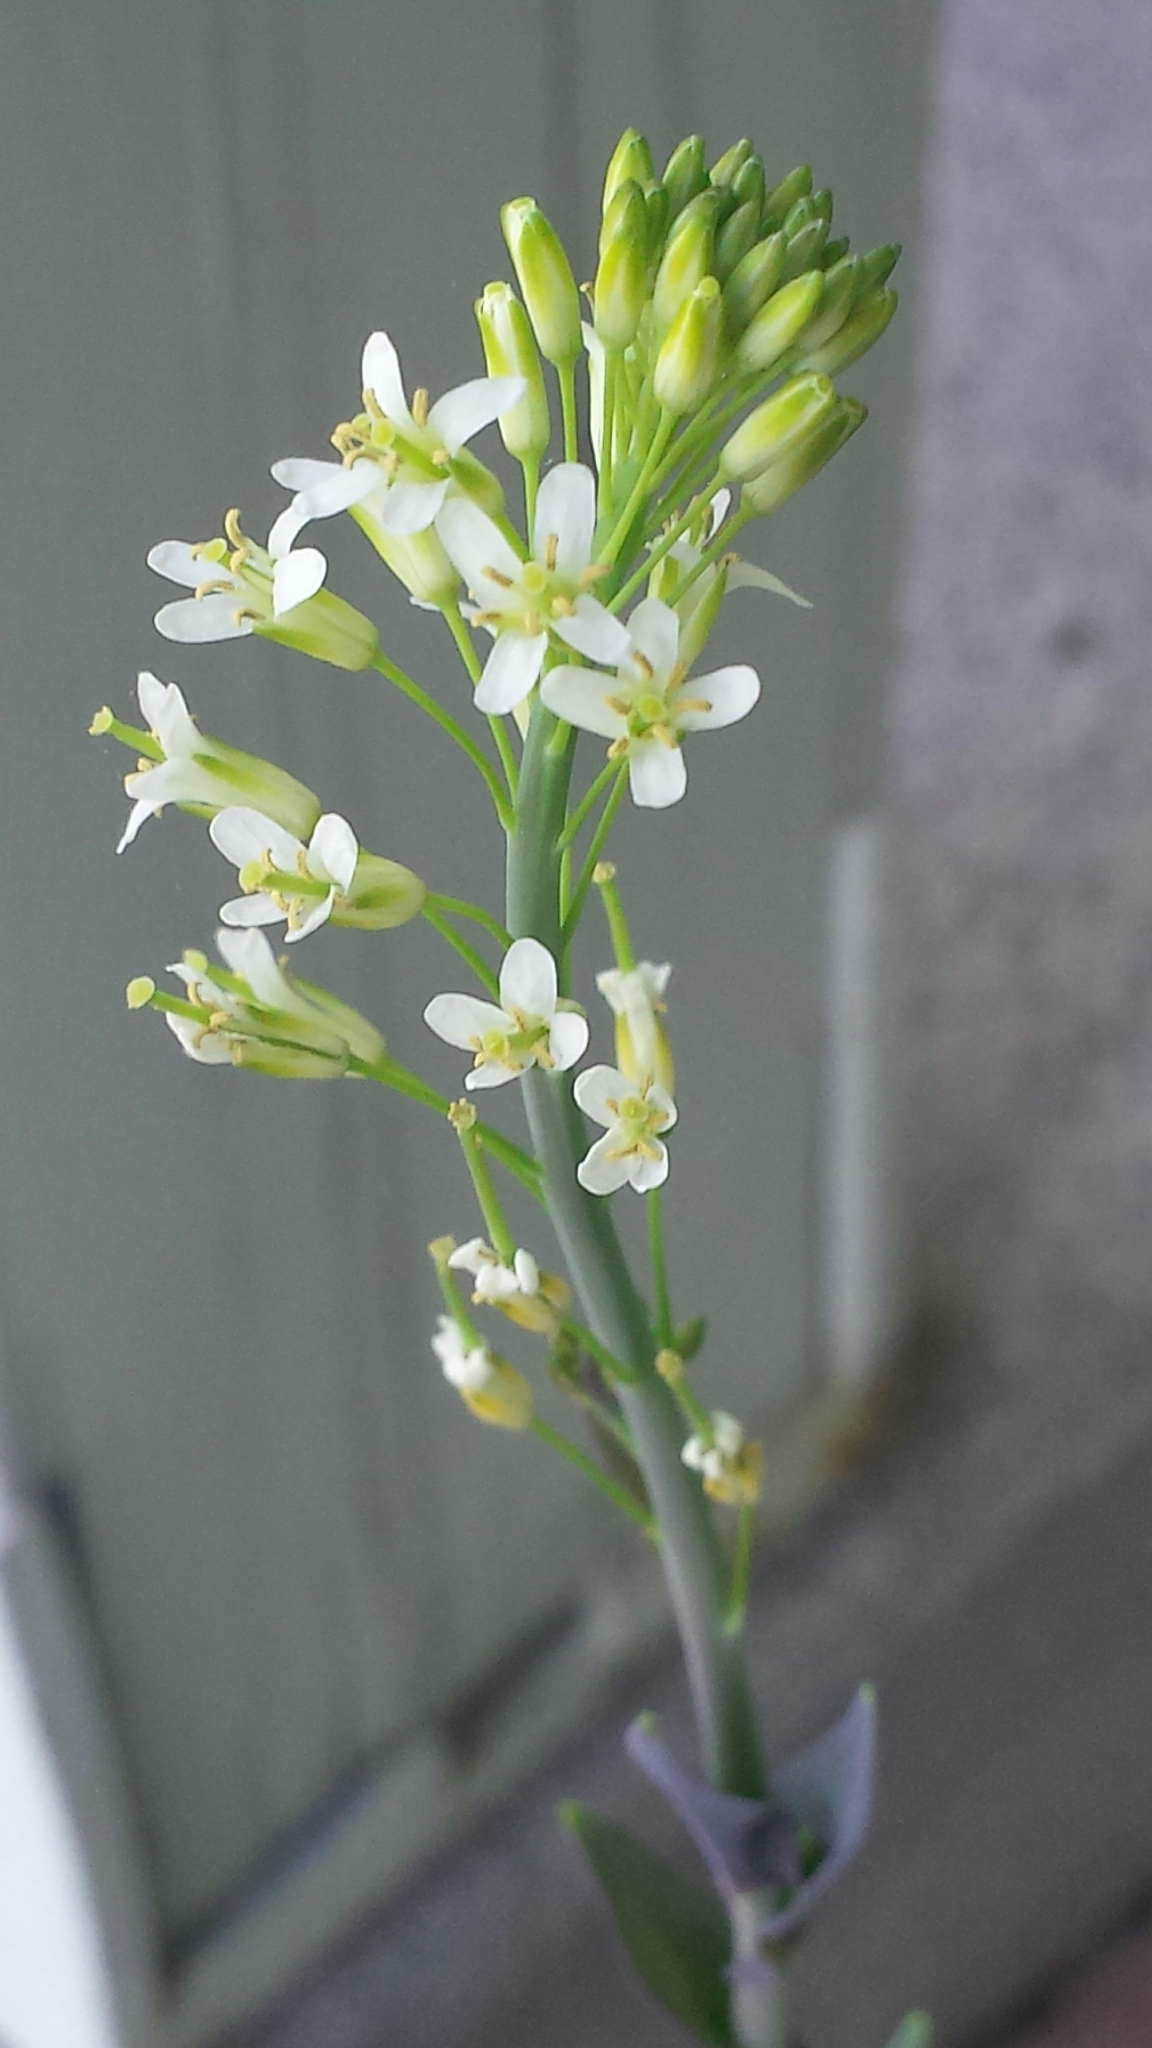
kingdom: Plantae
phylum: Tracheophyta
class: Magnoliopsida
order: Brassicales
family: Brassicaceae
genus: Turritis
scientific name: Turritis glabra
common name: Tower rockcress
